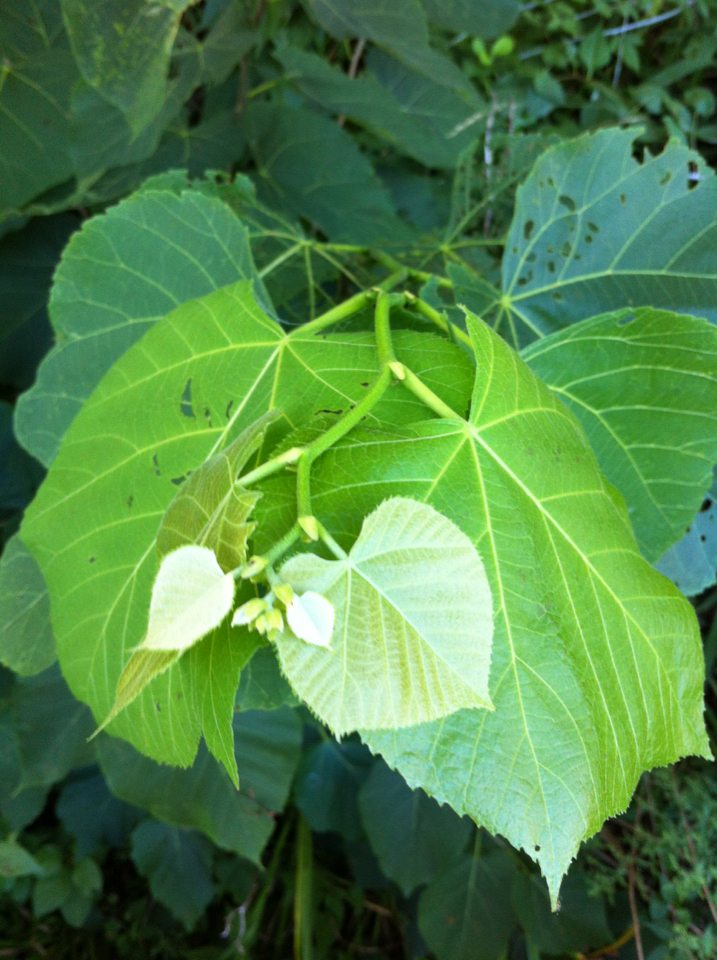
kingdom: Plantae
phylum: Tracheophyta
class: Magnoliopsida
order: Malvales
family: Malvaceae
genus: Tilia
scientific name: Tilia americana
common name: Basswood
